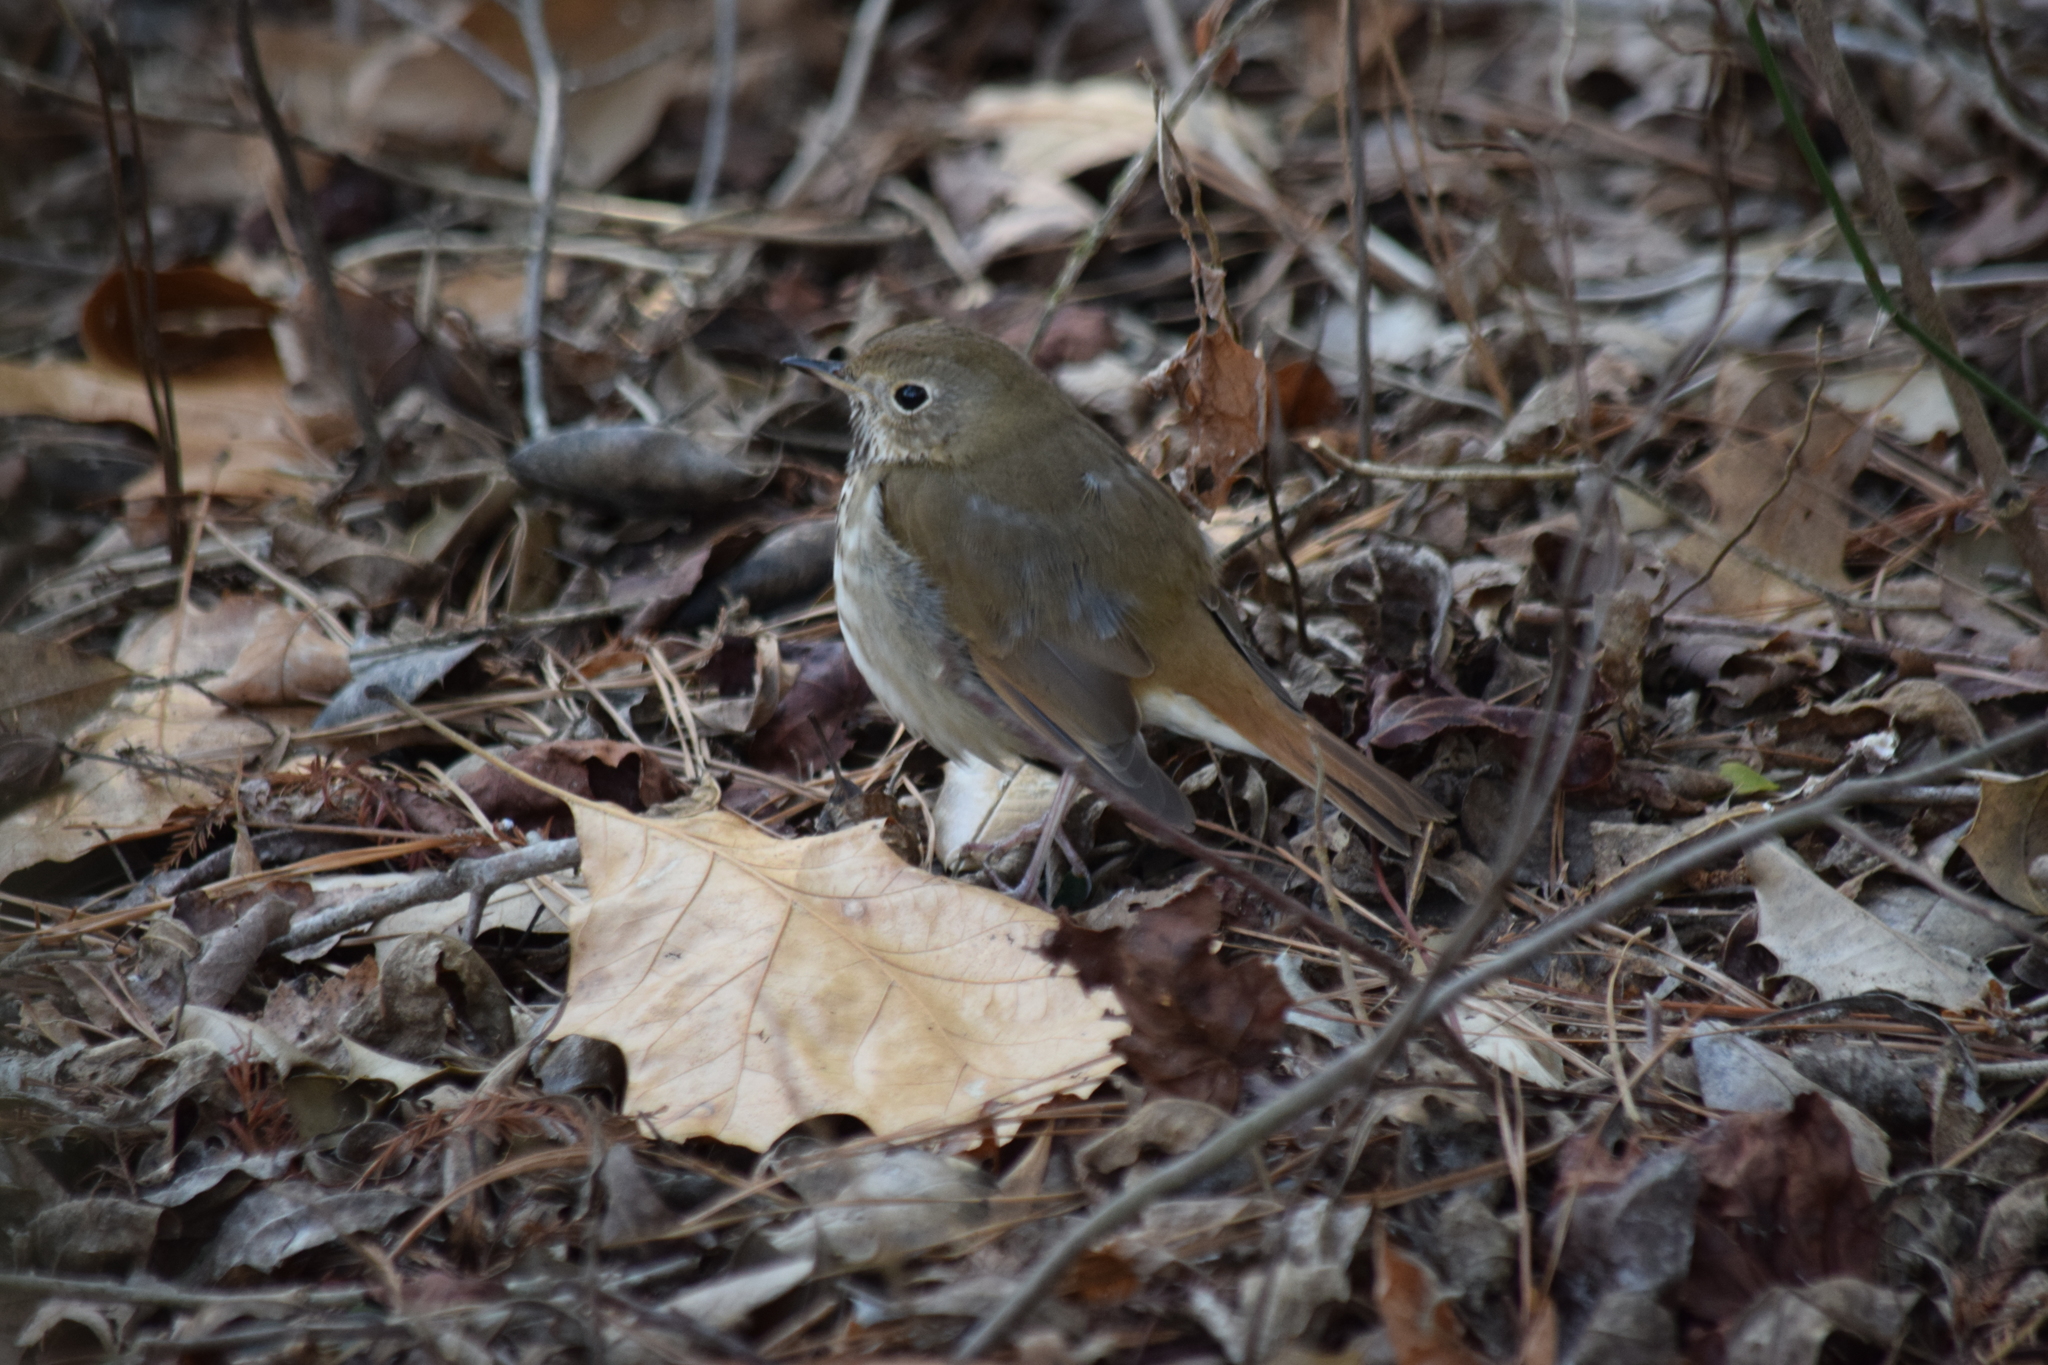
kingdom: Animalia
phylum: Chordata
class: Aves
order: Passeriformes
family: Turdidae
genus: Catharus
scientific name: Catharus guttatus
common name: Hermit thrush
